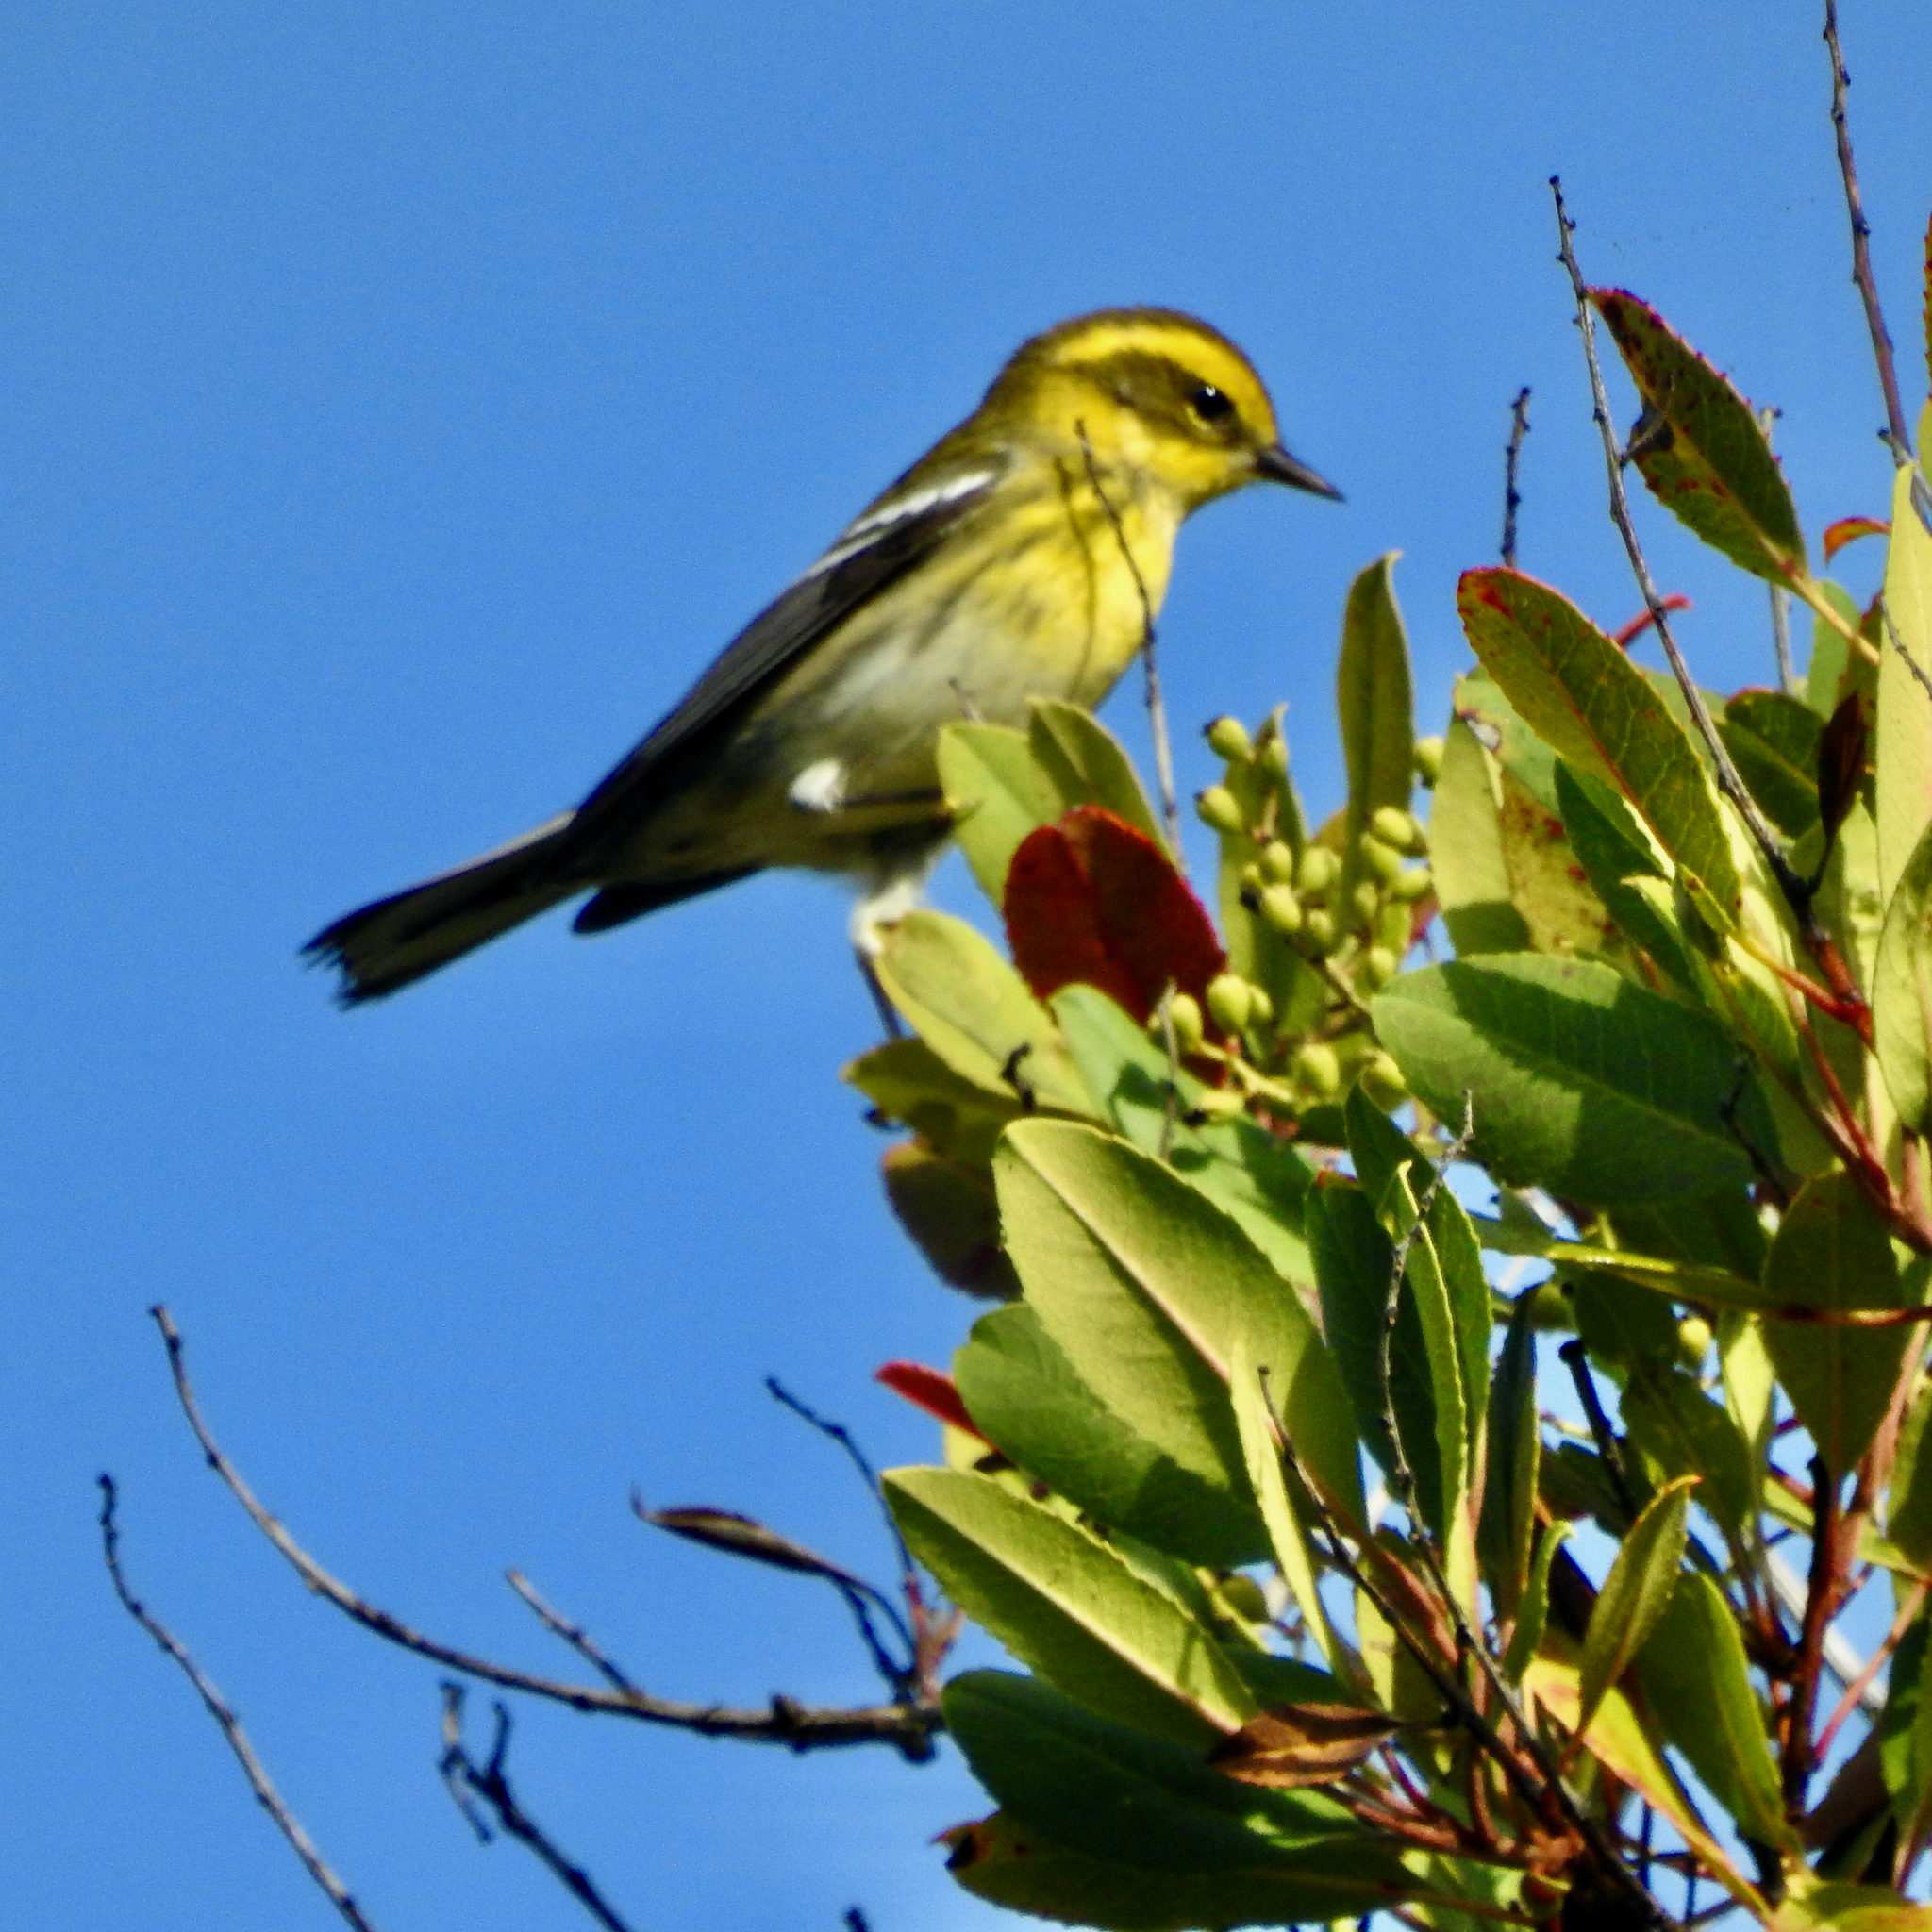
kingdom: Animalia
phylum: Chordata
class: Aves
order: Passeriformes
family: Parulidae
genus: Setophaga
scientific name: Setophaga townsendi
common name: Townsend's warbler
